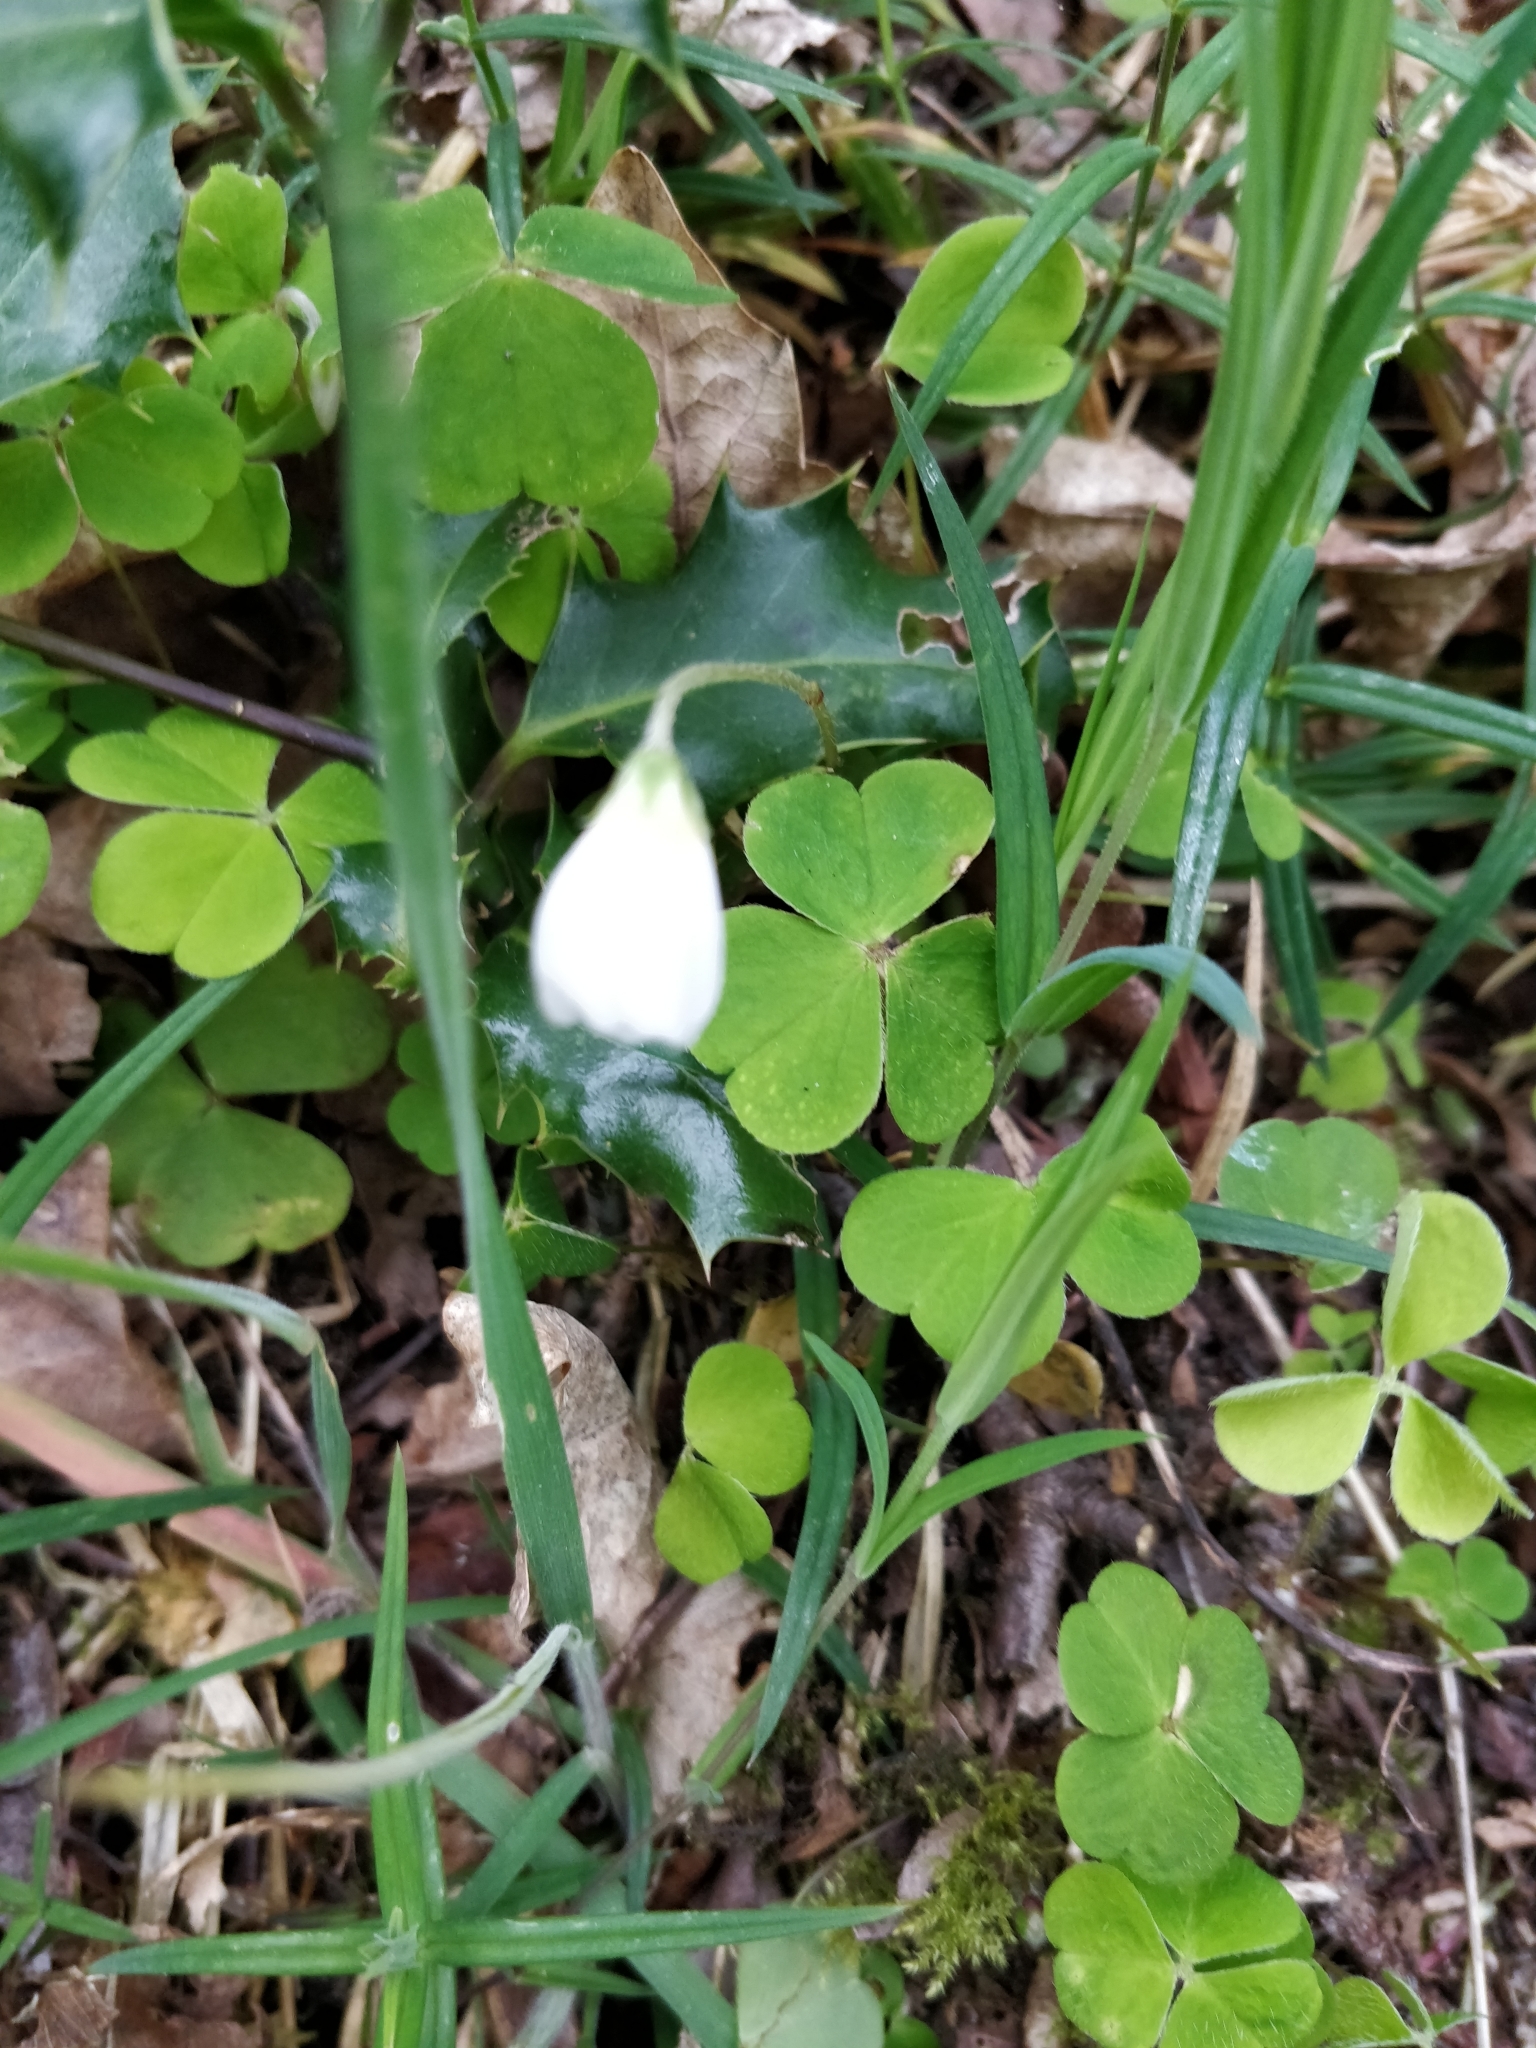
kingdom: Plantae
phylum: Tracheophyta
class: Magnoliopsida
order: Oxalidales
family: Oxalidaceae
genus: Oxalis
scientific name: Oxalis acetosella
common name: Wood-sorrel
